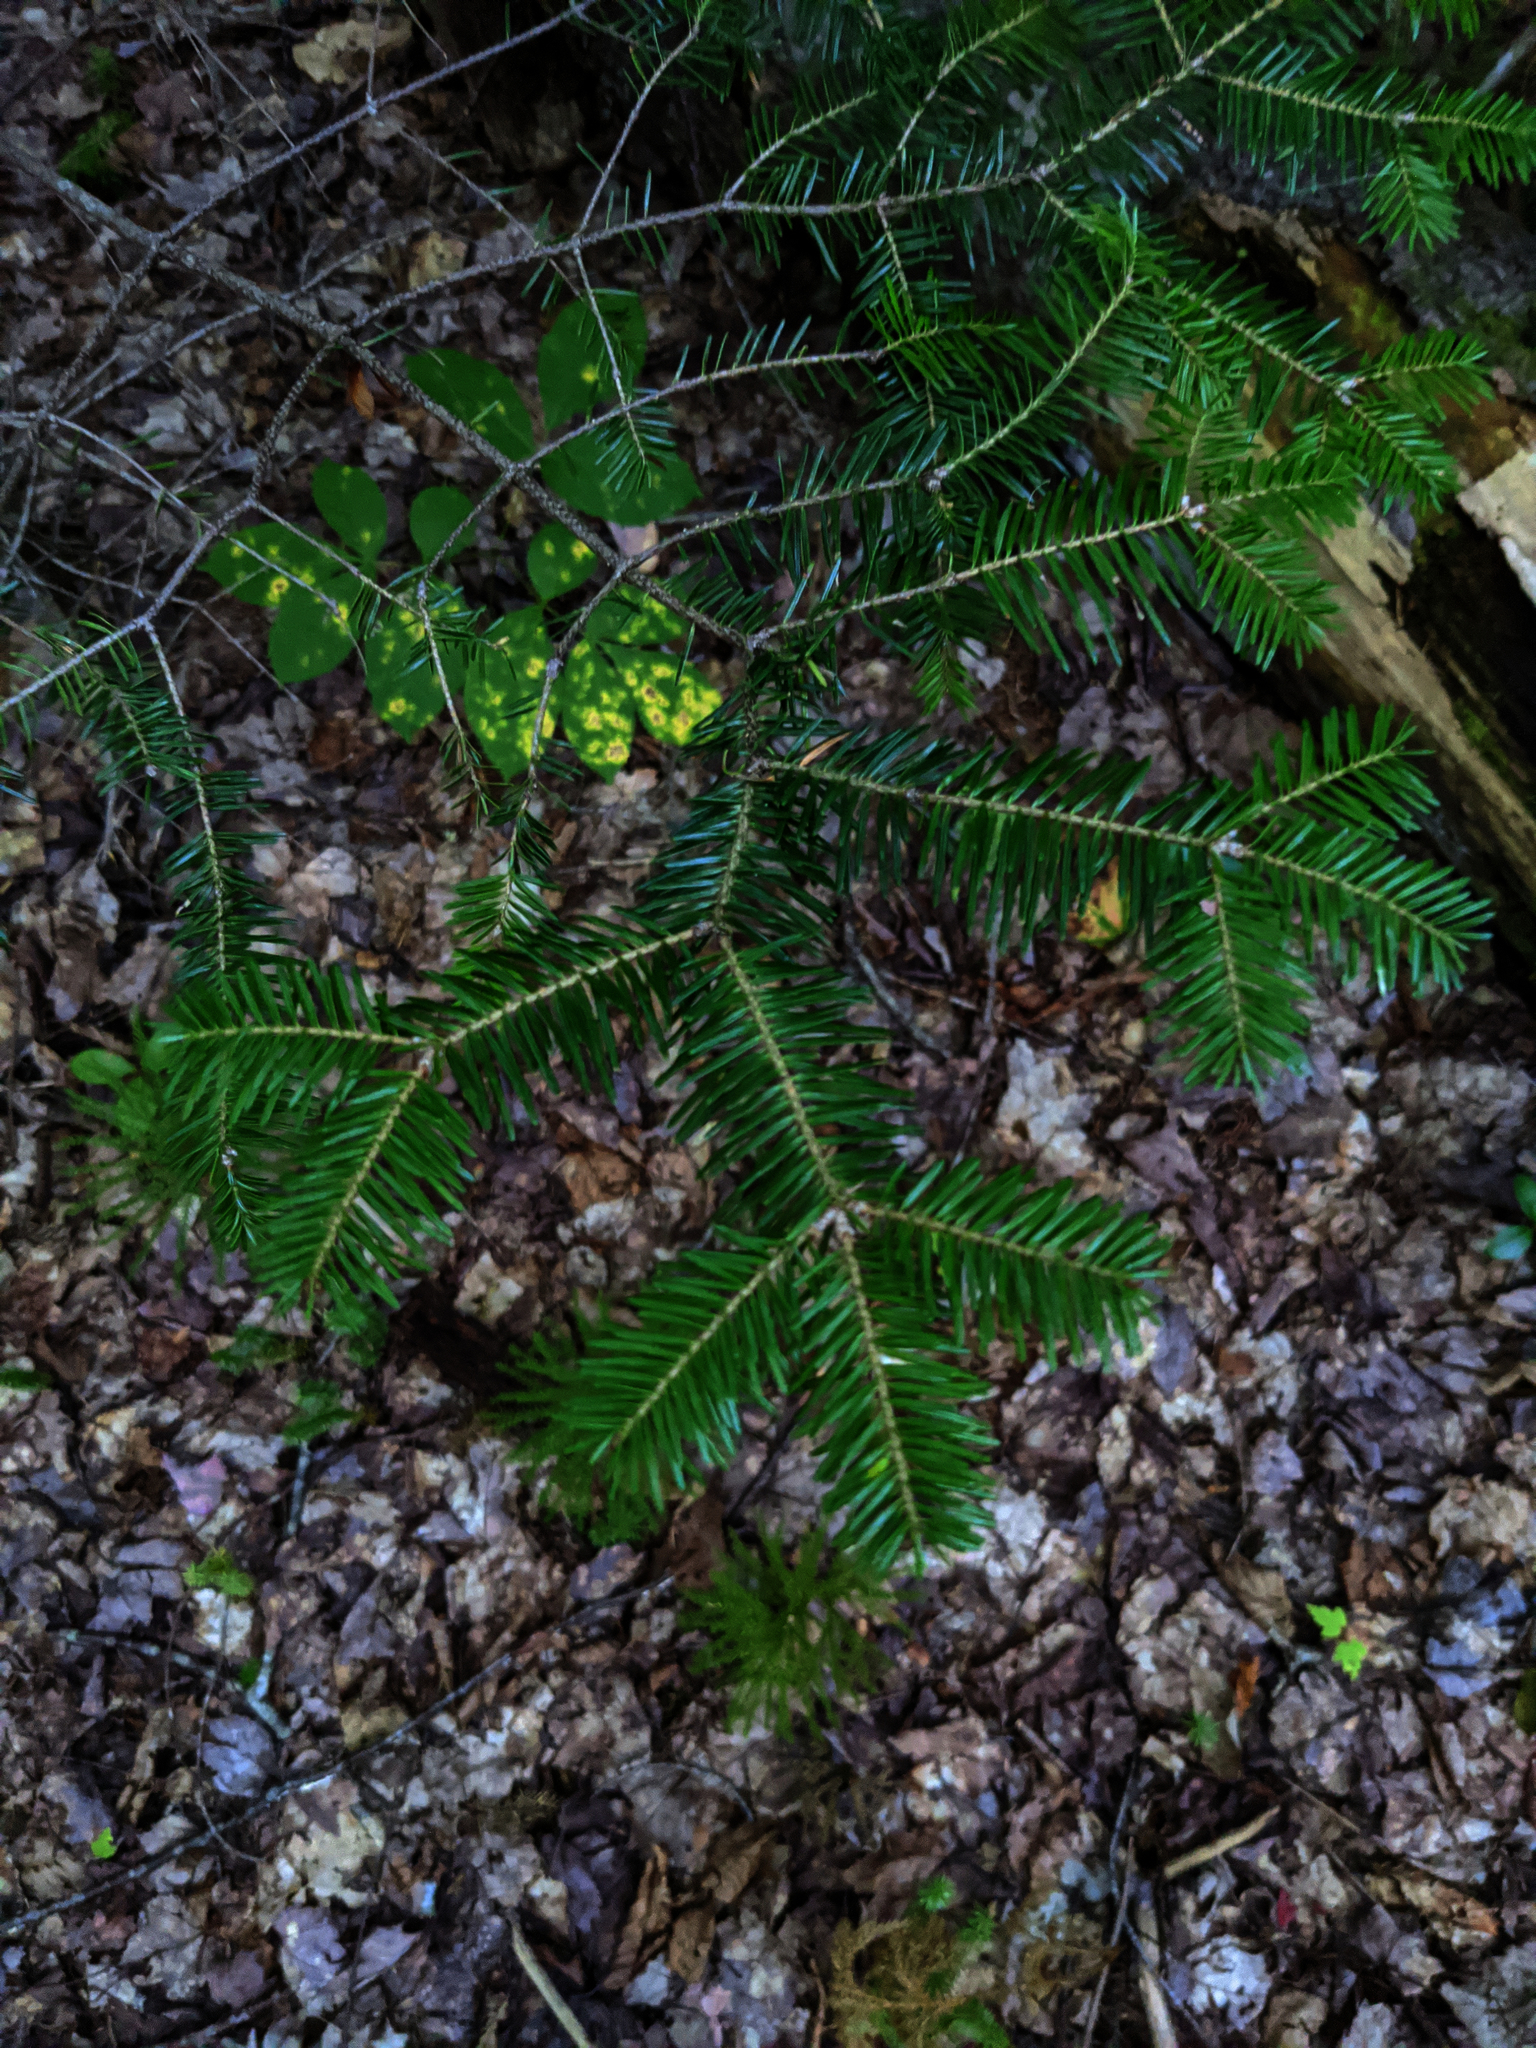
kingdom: Plantae
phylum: Tracheophyta
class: Pinopsida
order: Pinales
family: Pinaceae
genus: Abies
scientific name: Abies balsamea
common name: Balsam fir
